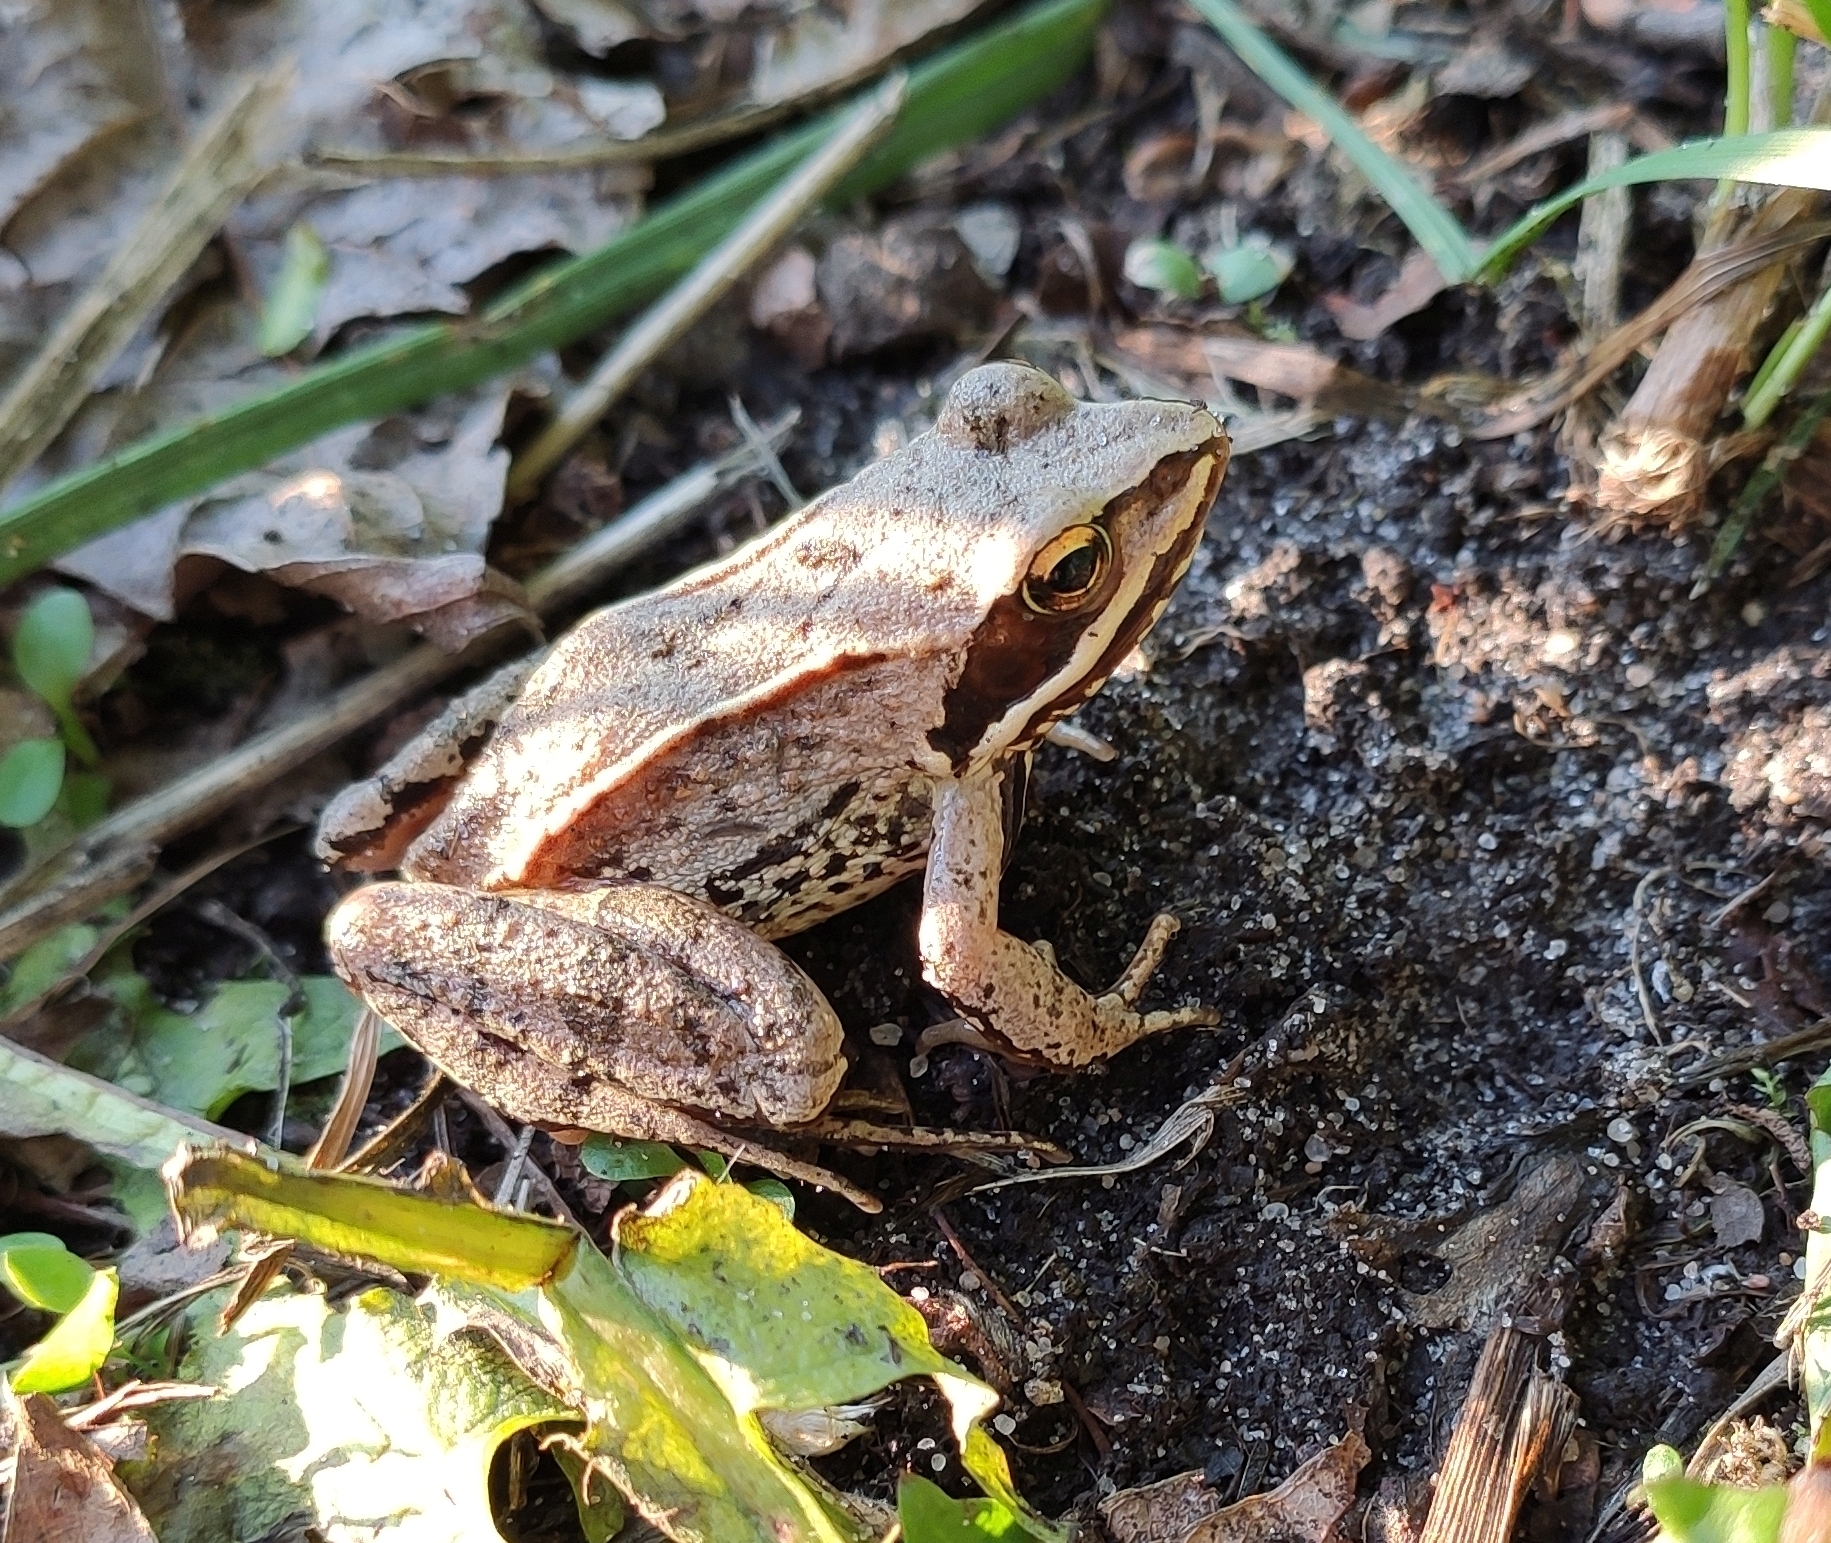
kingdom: Animalia
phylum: Chordata
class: Amphibia
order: Anura
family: Ranidae
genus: Rana
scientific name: Rana arvalis
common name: Moor frog
